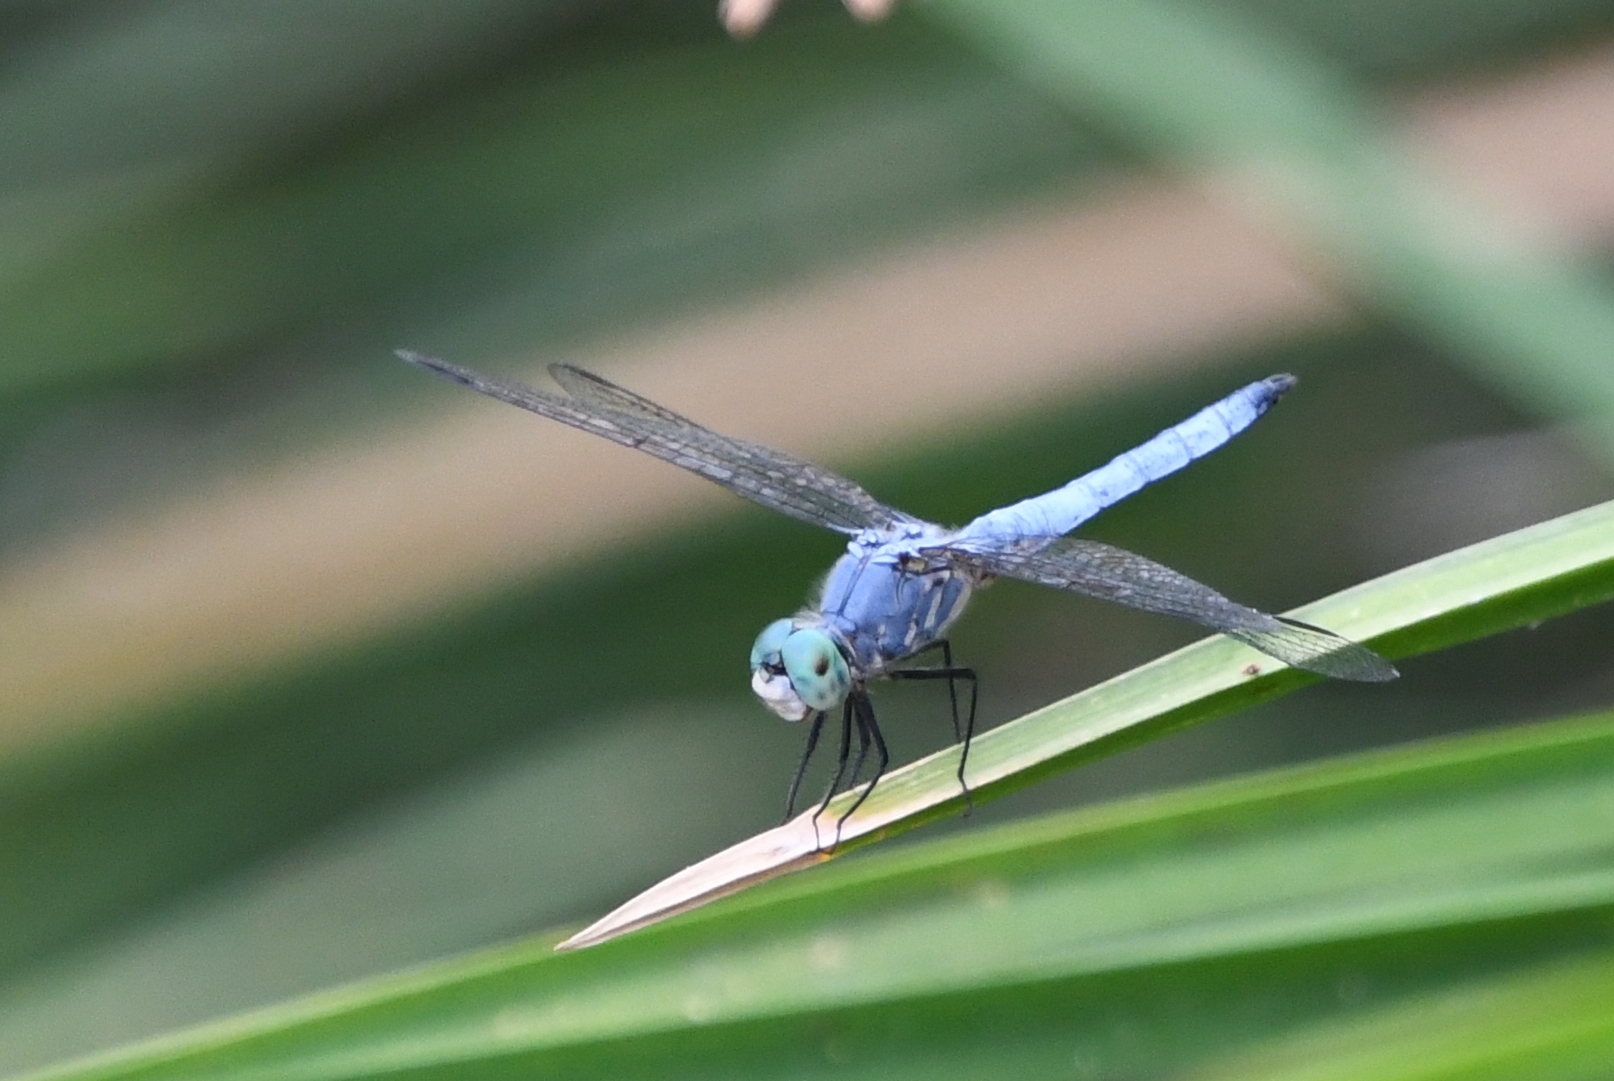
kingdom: Animalia
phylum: Arthropoda
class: Insecta
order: Odonata
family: Libellulidae
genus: Pachydiplax
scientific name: Pachydiplax longipennis
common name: Blue dasher
